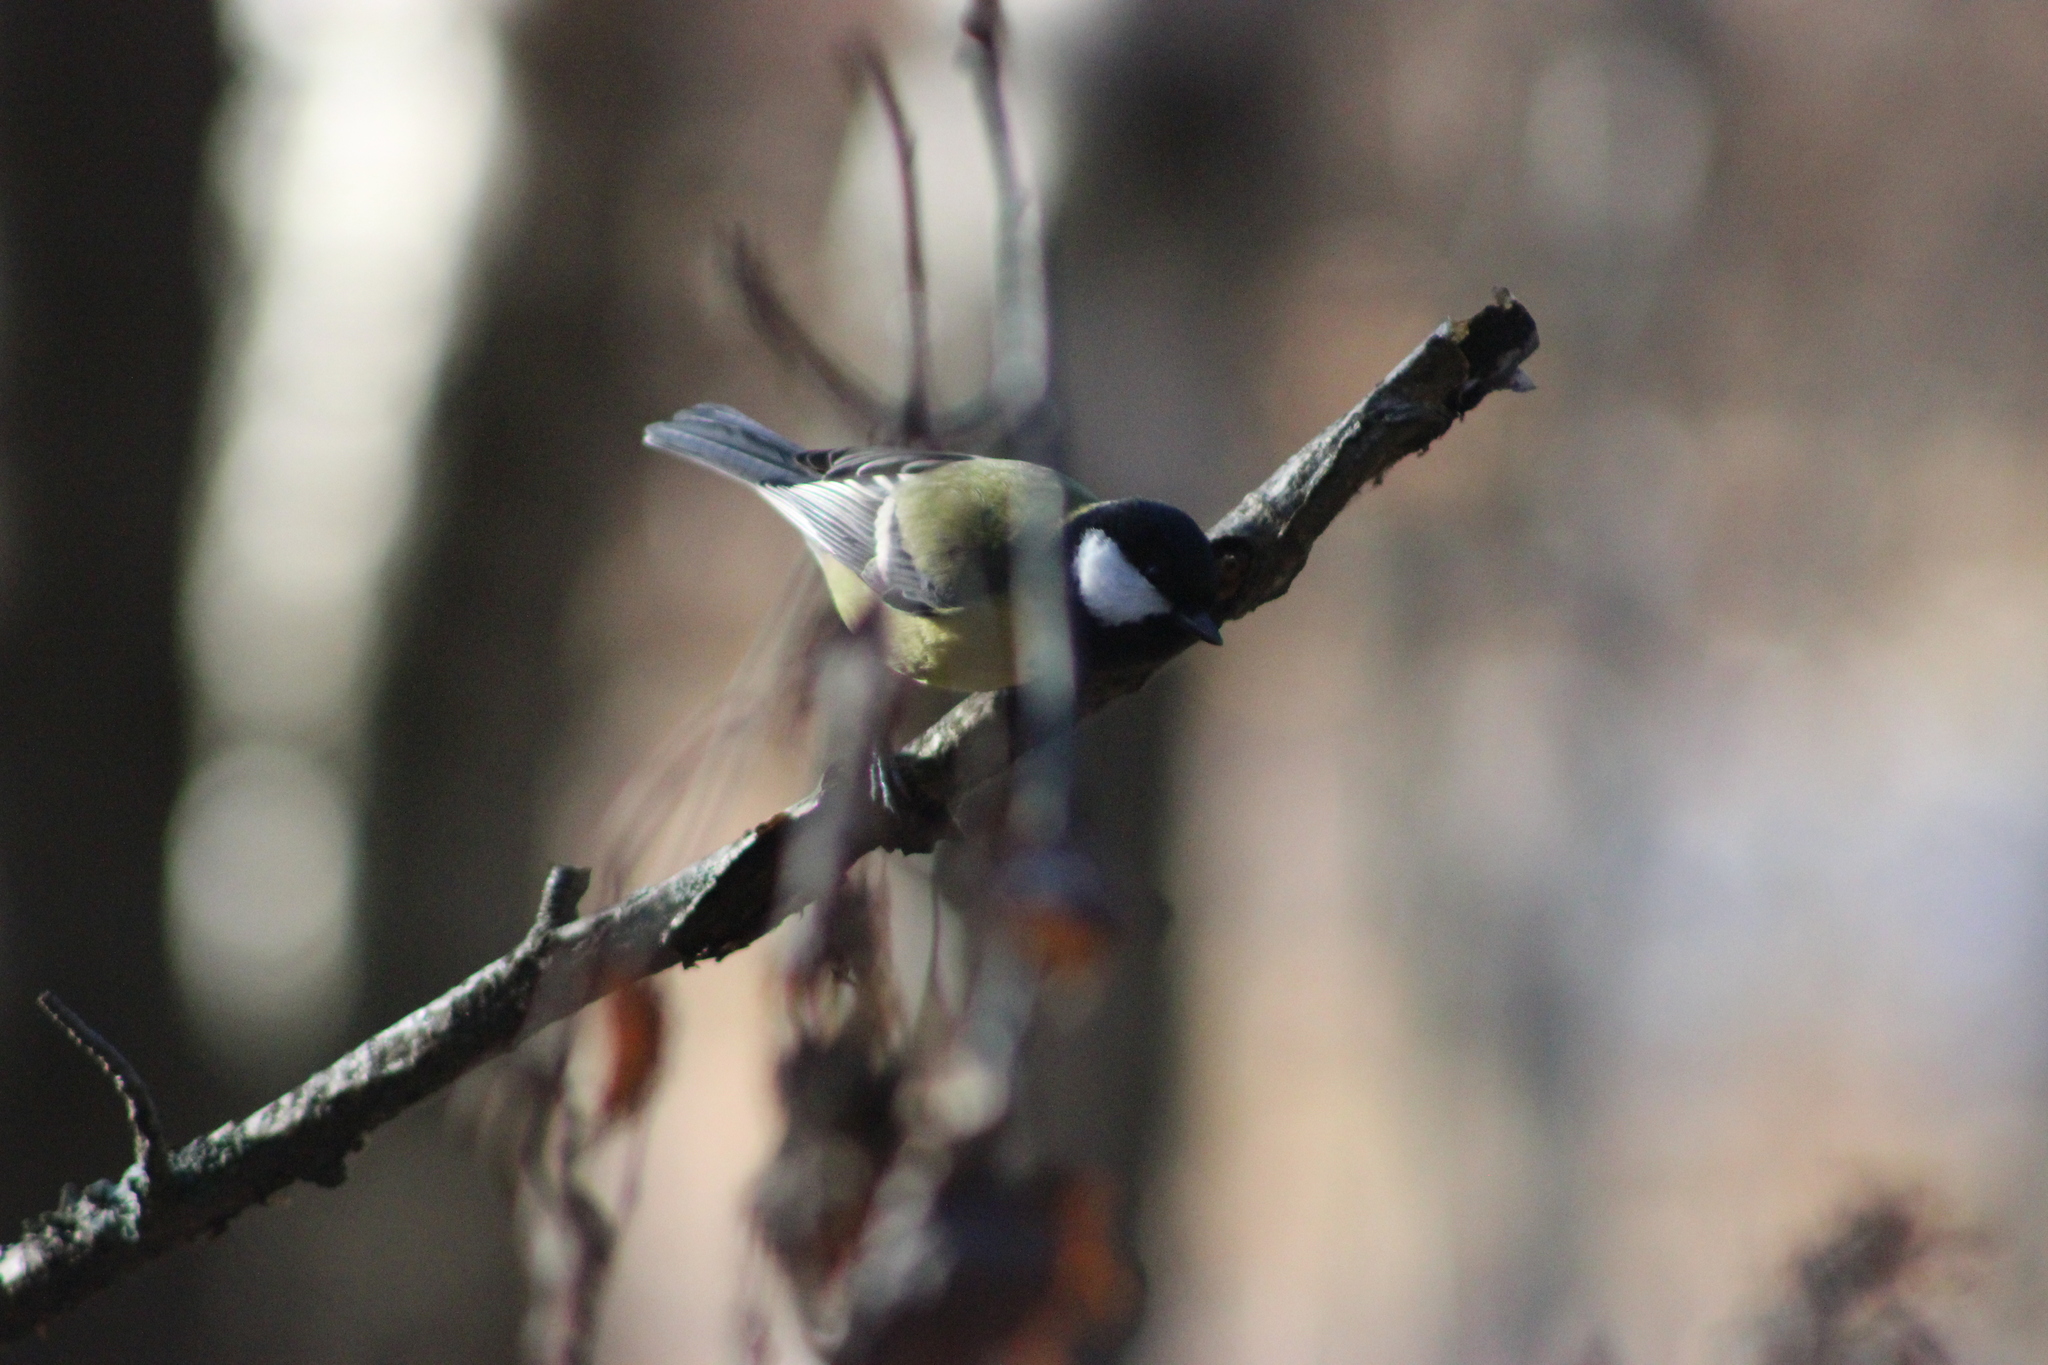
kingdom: Animalia
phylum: Chordata
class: Aves
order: Passeriformes
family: Paridae
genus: Parus
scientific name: Parus major
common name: Great tit
